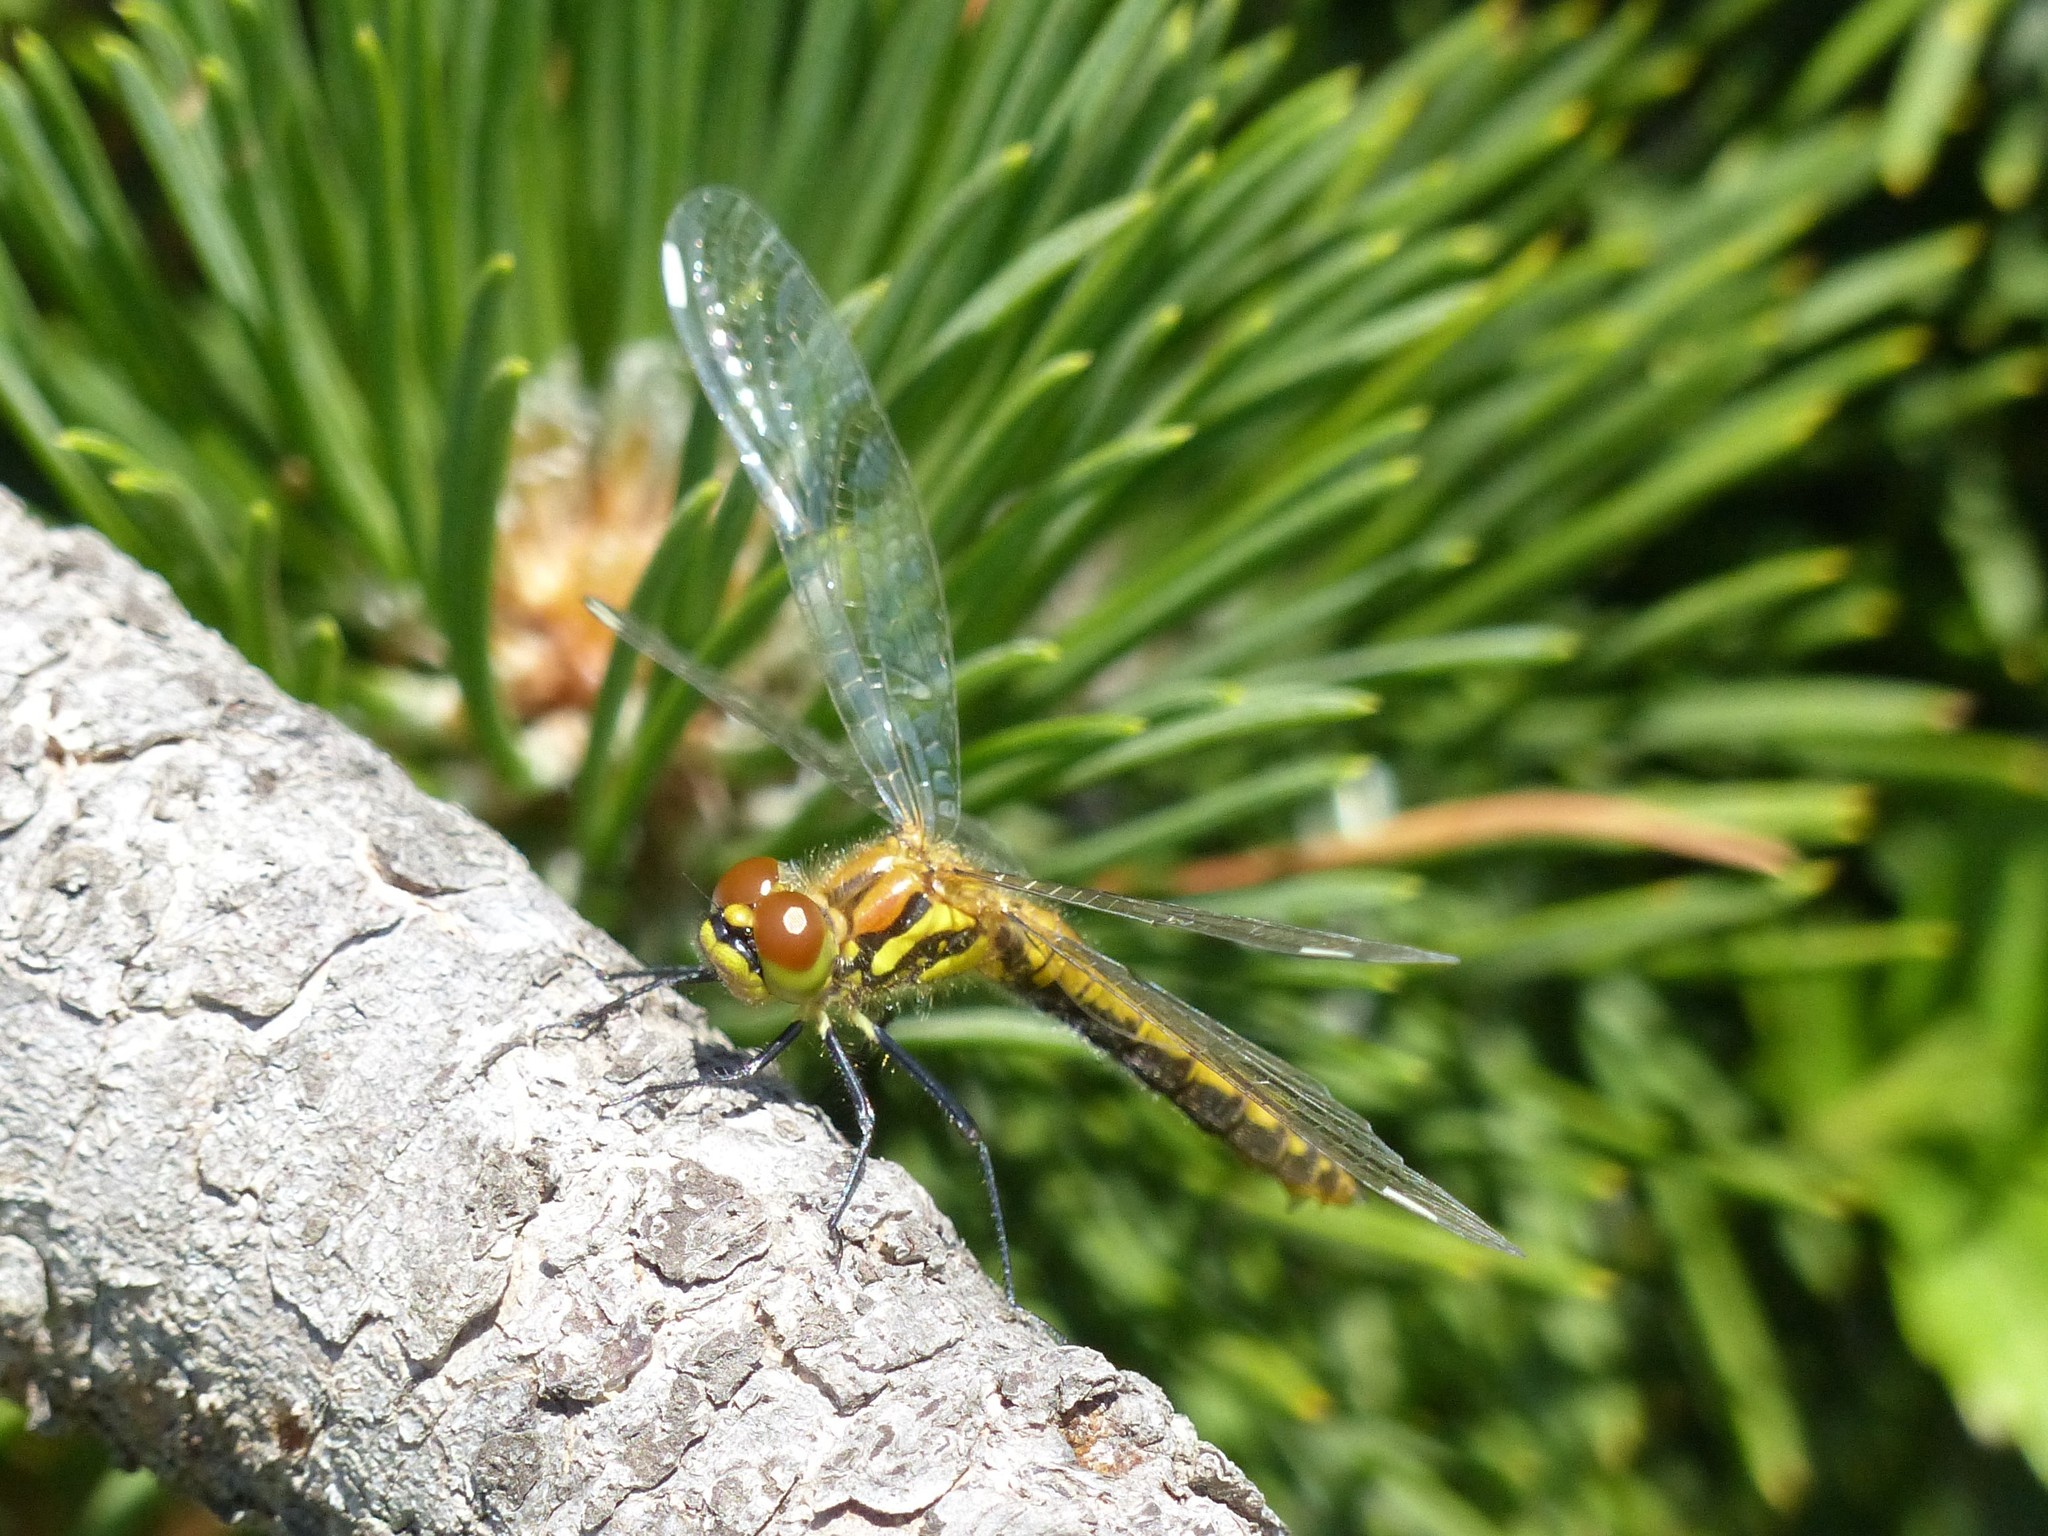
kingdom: Animalia
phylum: Arthropoda
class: Insecta
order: Odonata
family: Libellulidae
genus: Sympetrum
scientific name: Sympetrum danae
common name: Black darter
